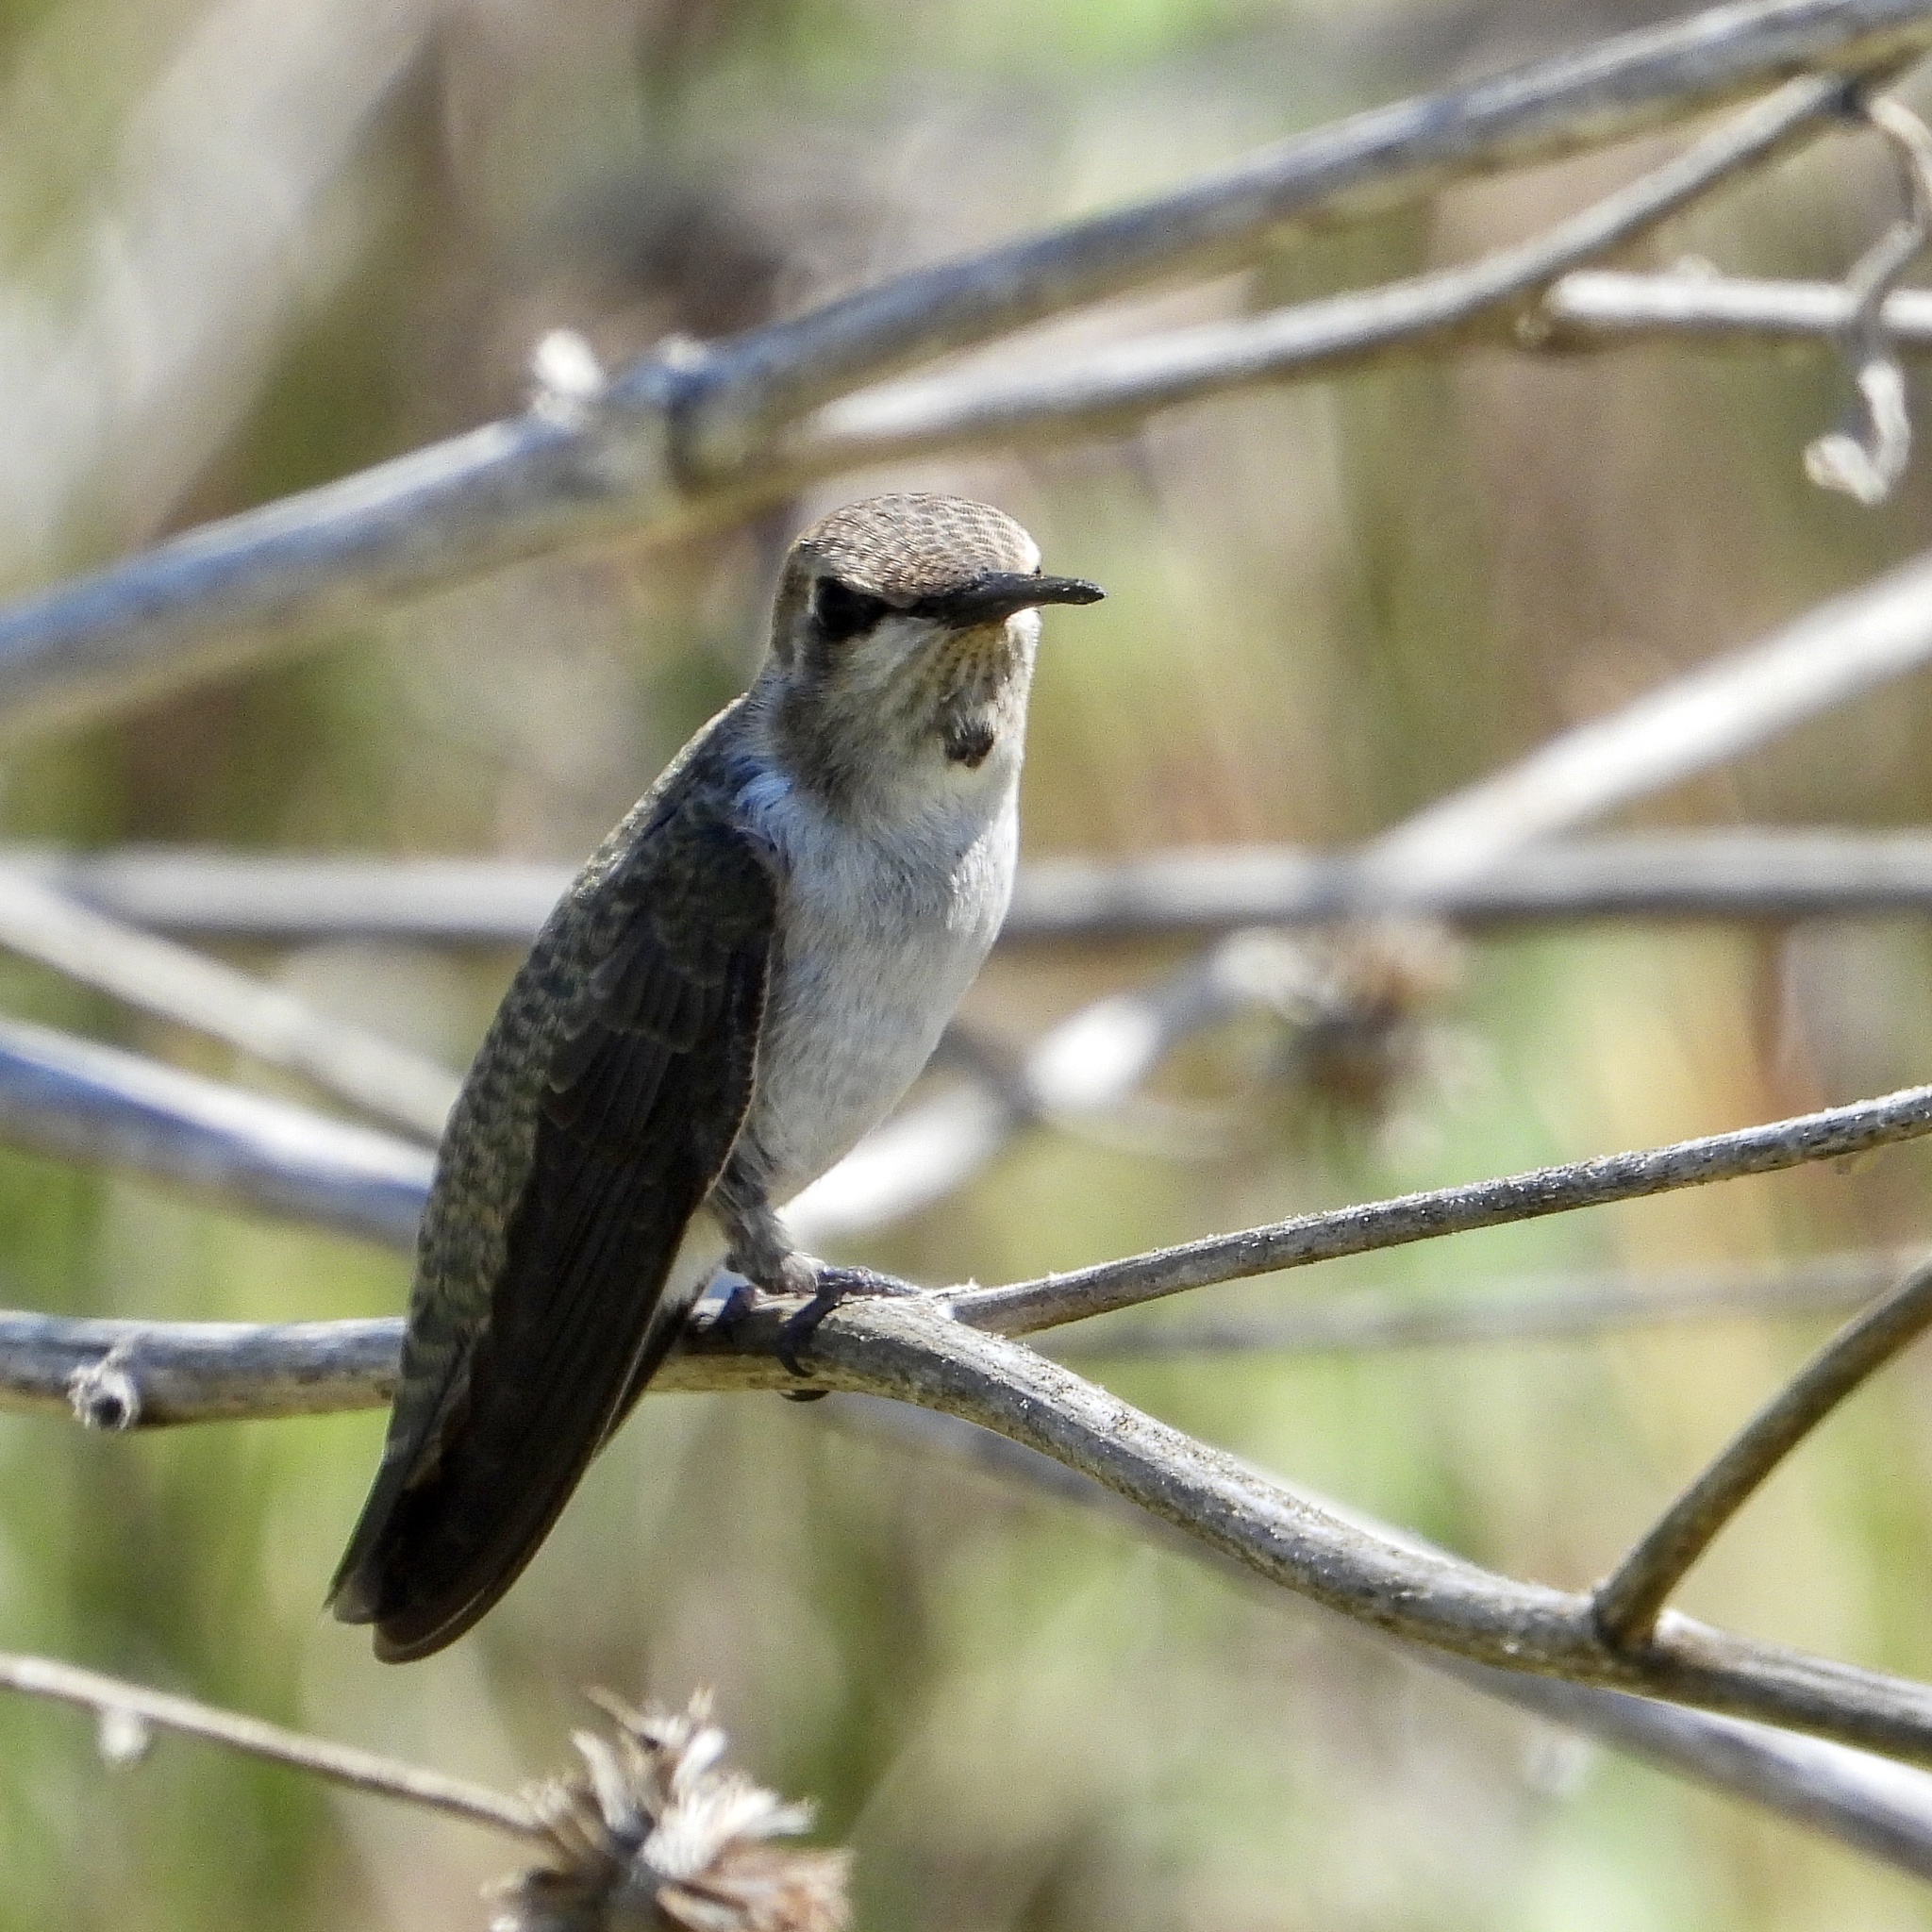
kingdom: Animalia
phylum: Chordata
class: Aves
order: Apodiformes
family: Trochilidae
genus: Calypte
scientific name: Calypte costae
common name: Costa's hummingbird
